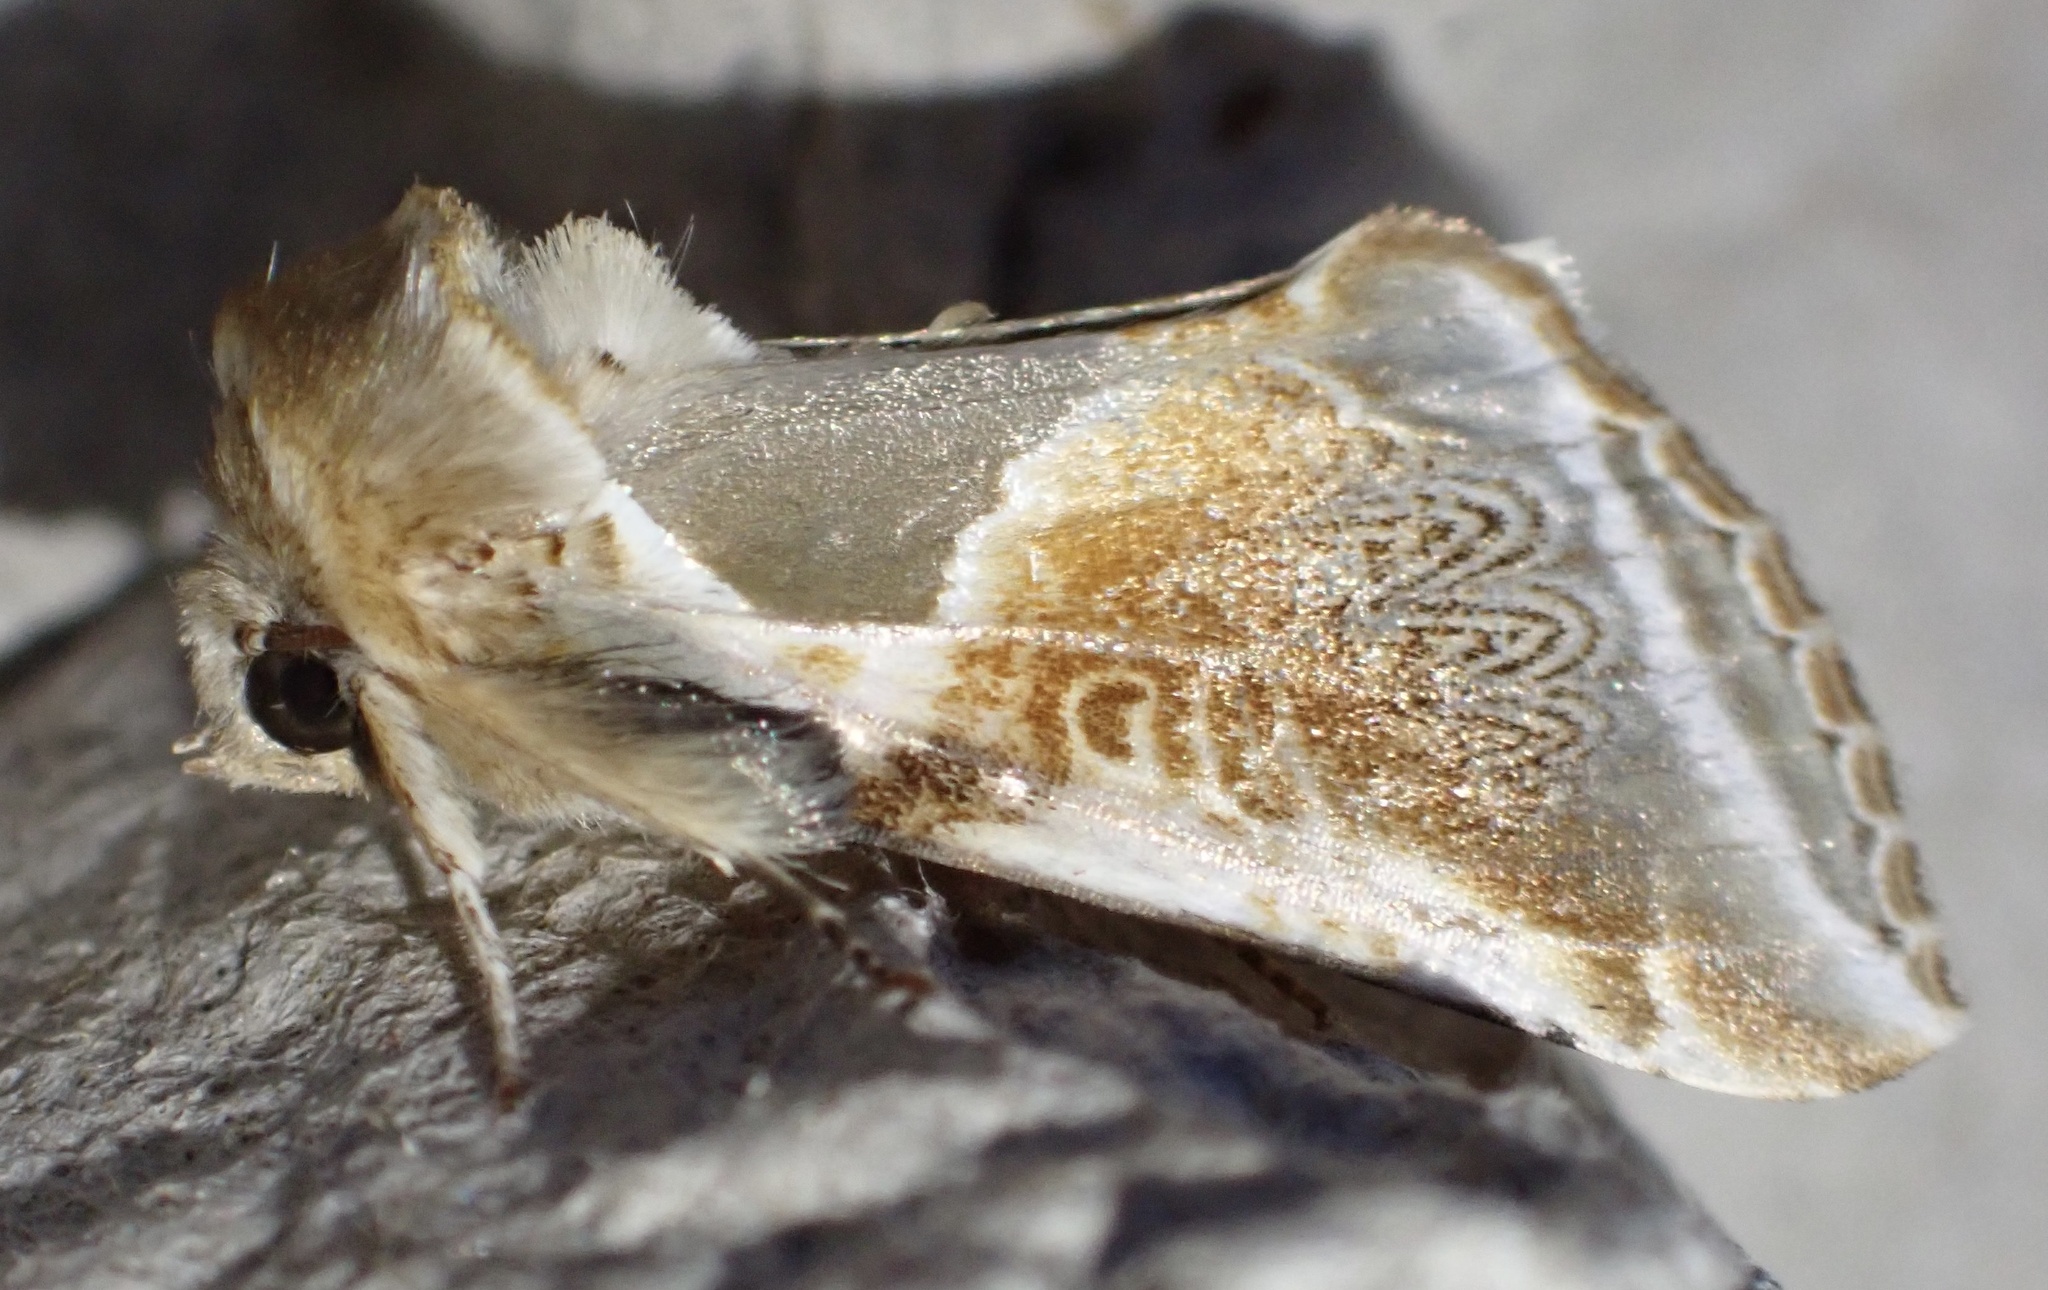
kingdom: Animalia
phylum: Arthropoda
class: Insecta
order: Lepidoptera
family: Drepanidae
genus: Habrosyne
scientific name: Habrosyne pyritoides
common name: Buff arches
